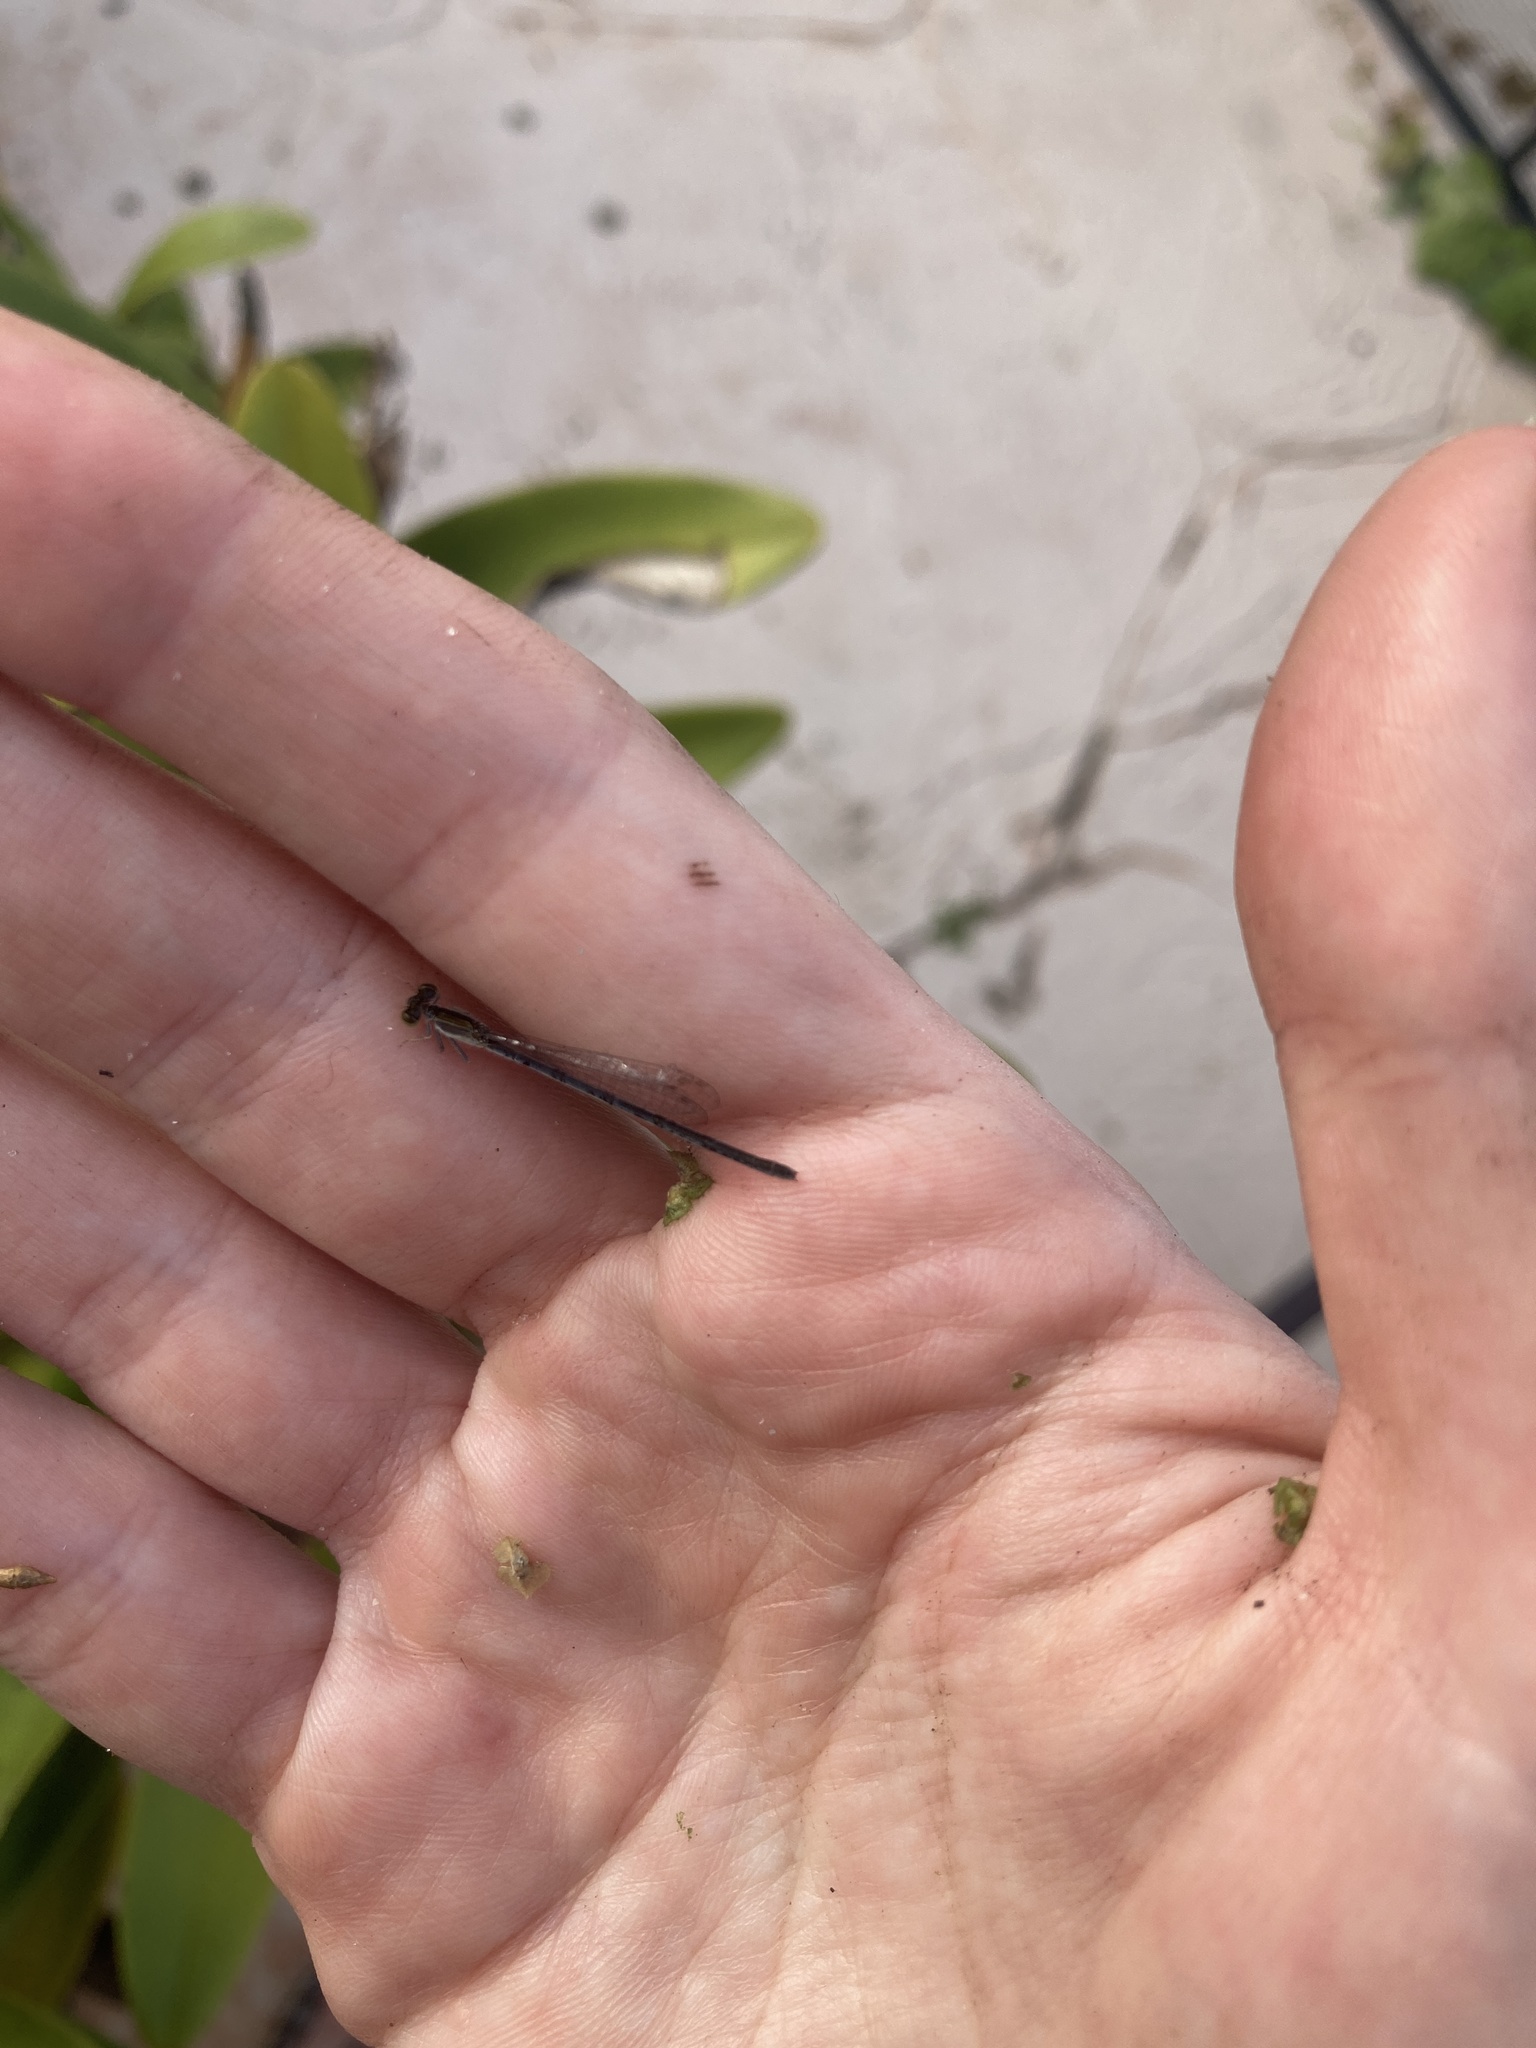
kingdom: Animalia
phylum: Arthropoda
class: Insecta
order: Odonata
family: Coenagrionidae
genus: Ischnura
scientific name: Ischnura hastata
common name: Citrine forktail
